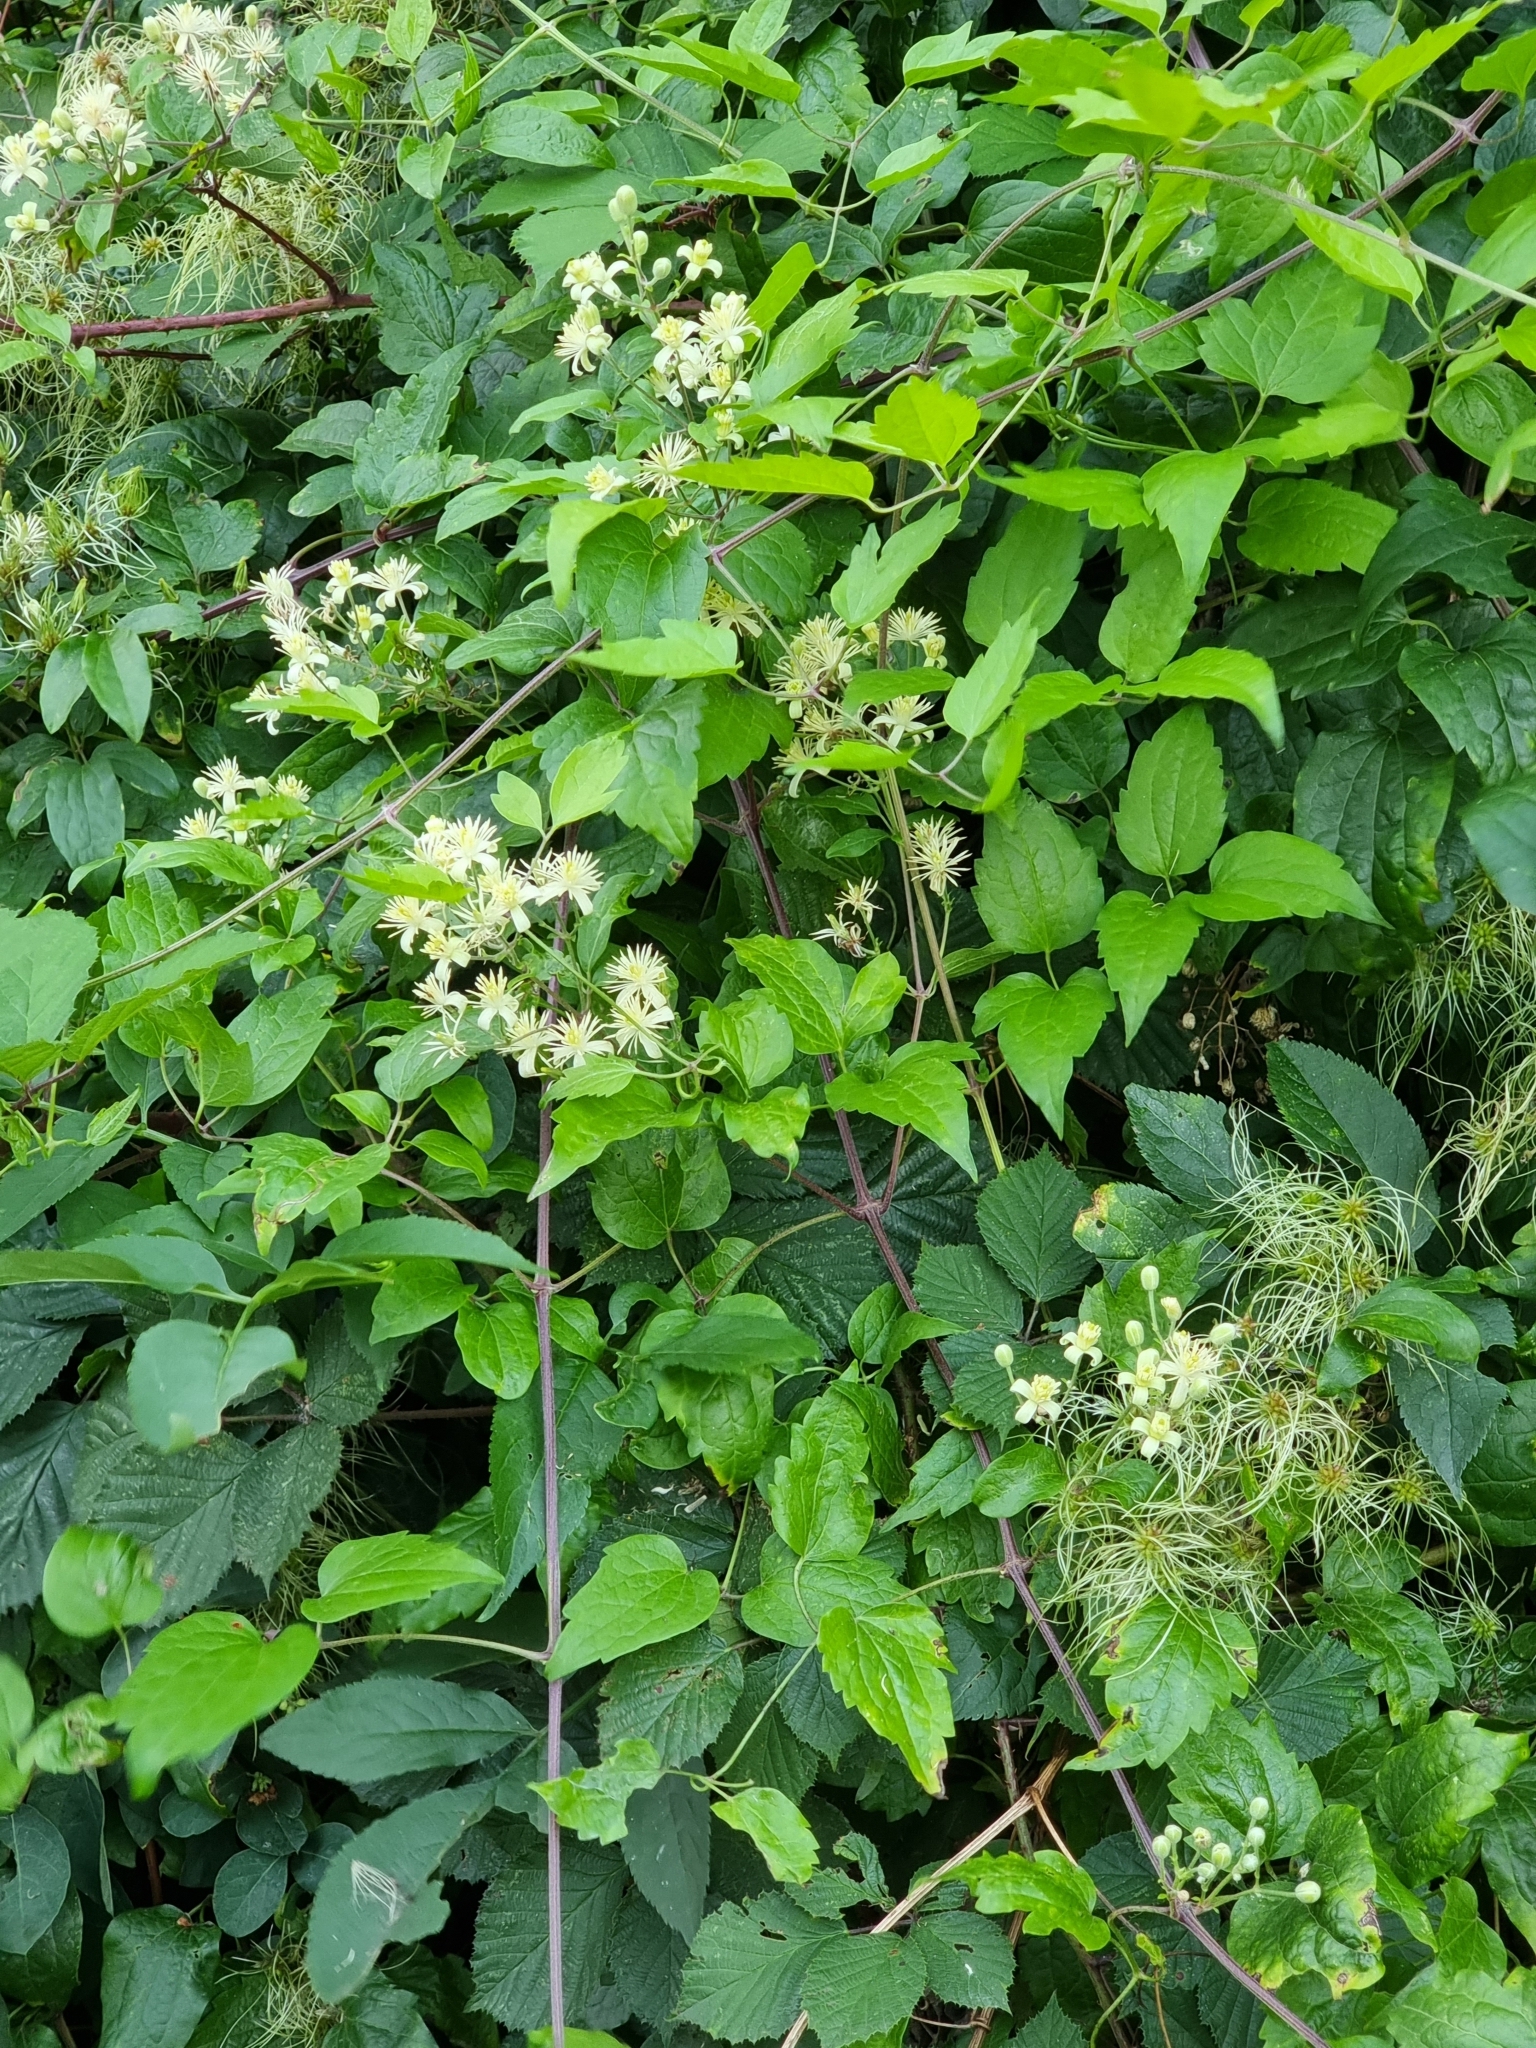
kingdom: Plantae
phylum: Tracheophyta
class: Magnoliopsida
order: Ranunculales
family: Ranunculaceae
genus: Clematis
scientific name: Clematis vitalba
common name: Evergreen clematis
